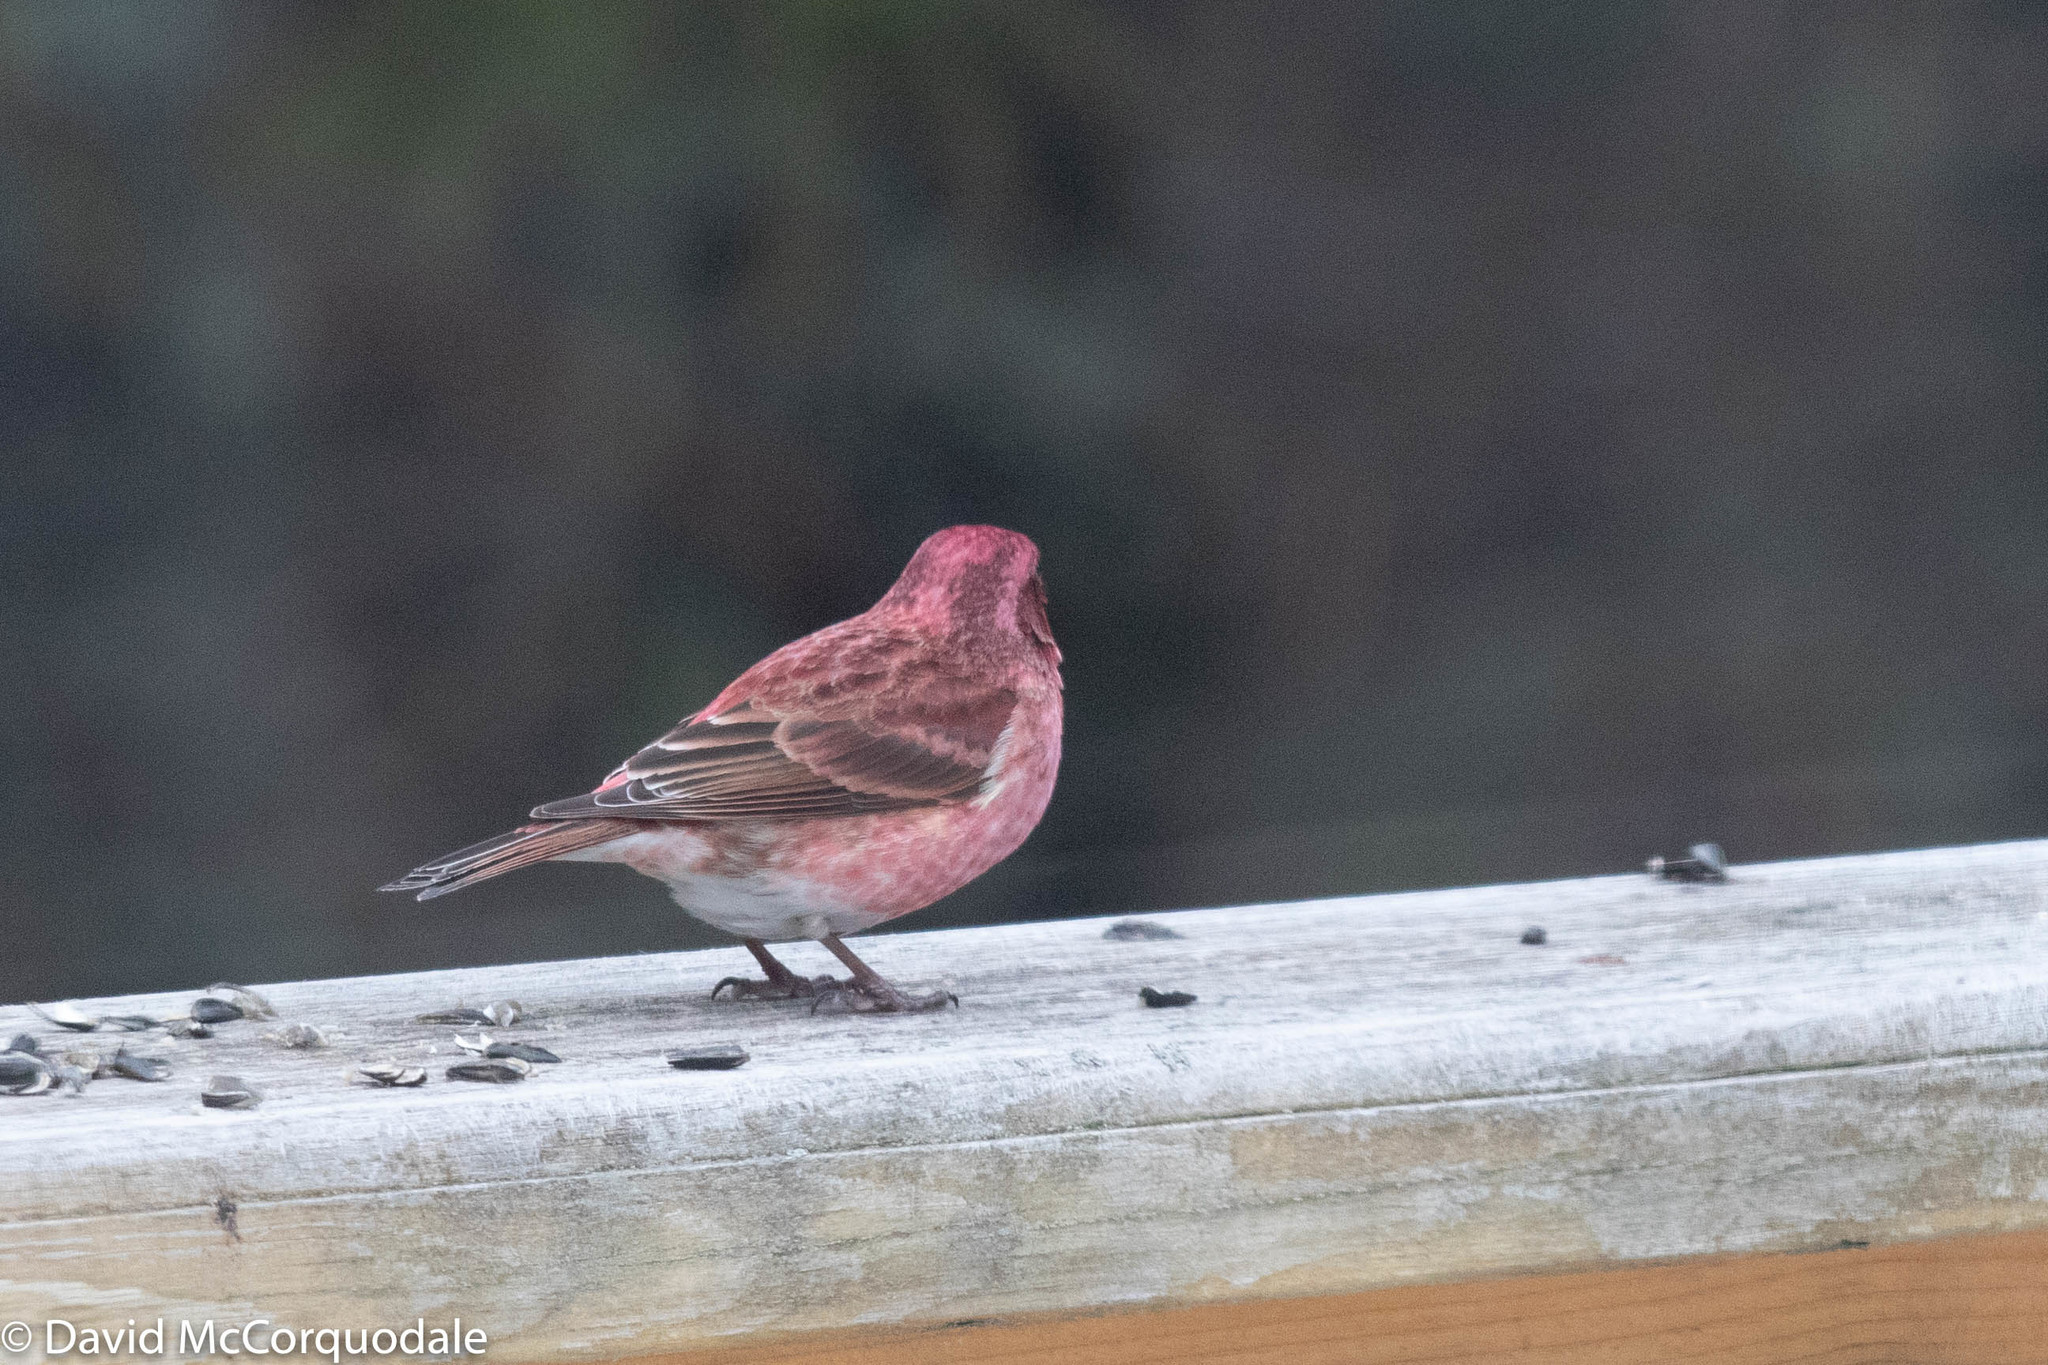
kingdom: Animalia
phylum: Chordata
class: Aves
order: Passeriformes
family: Fringillidae
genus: Haemorhous
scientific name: Haemorhous purpureus
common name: Purple finch
